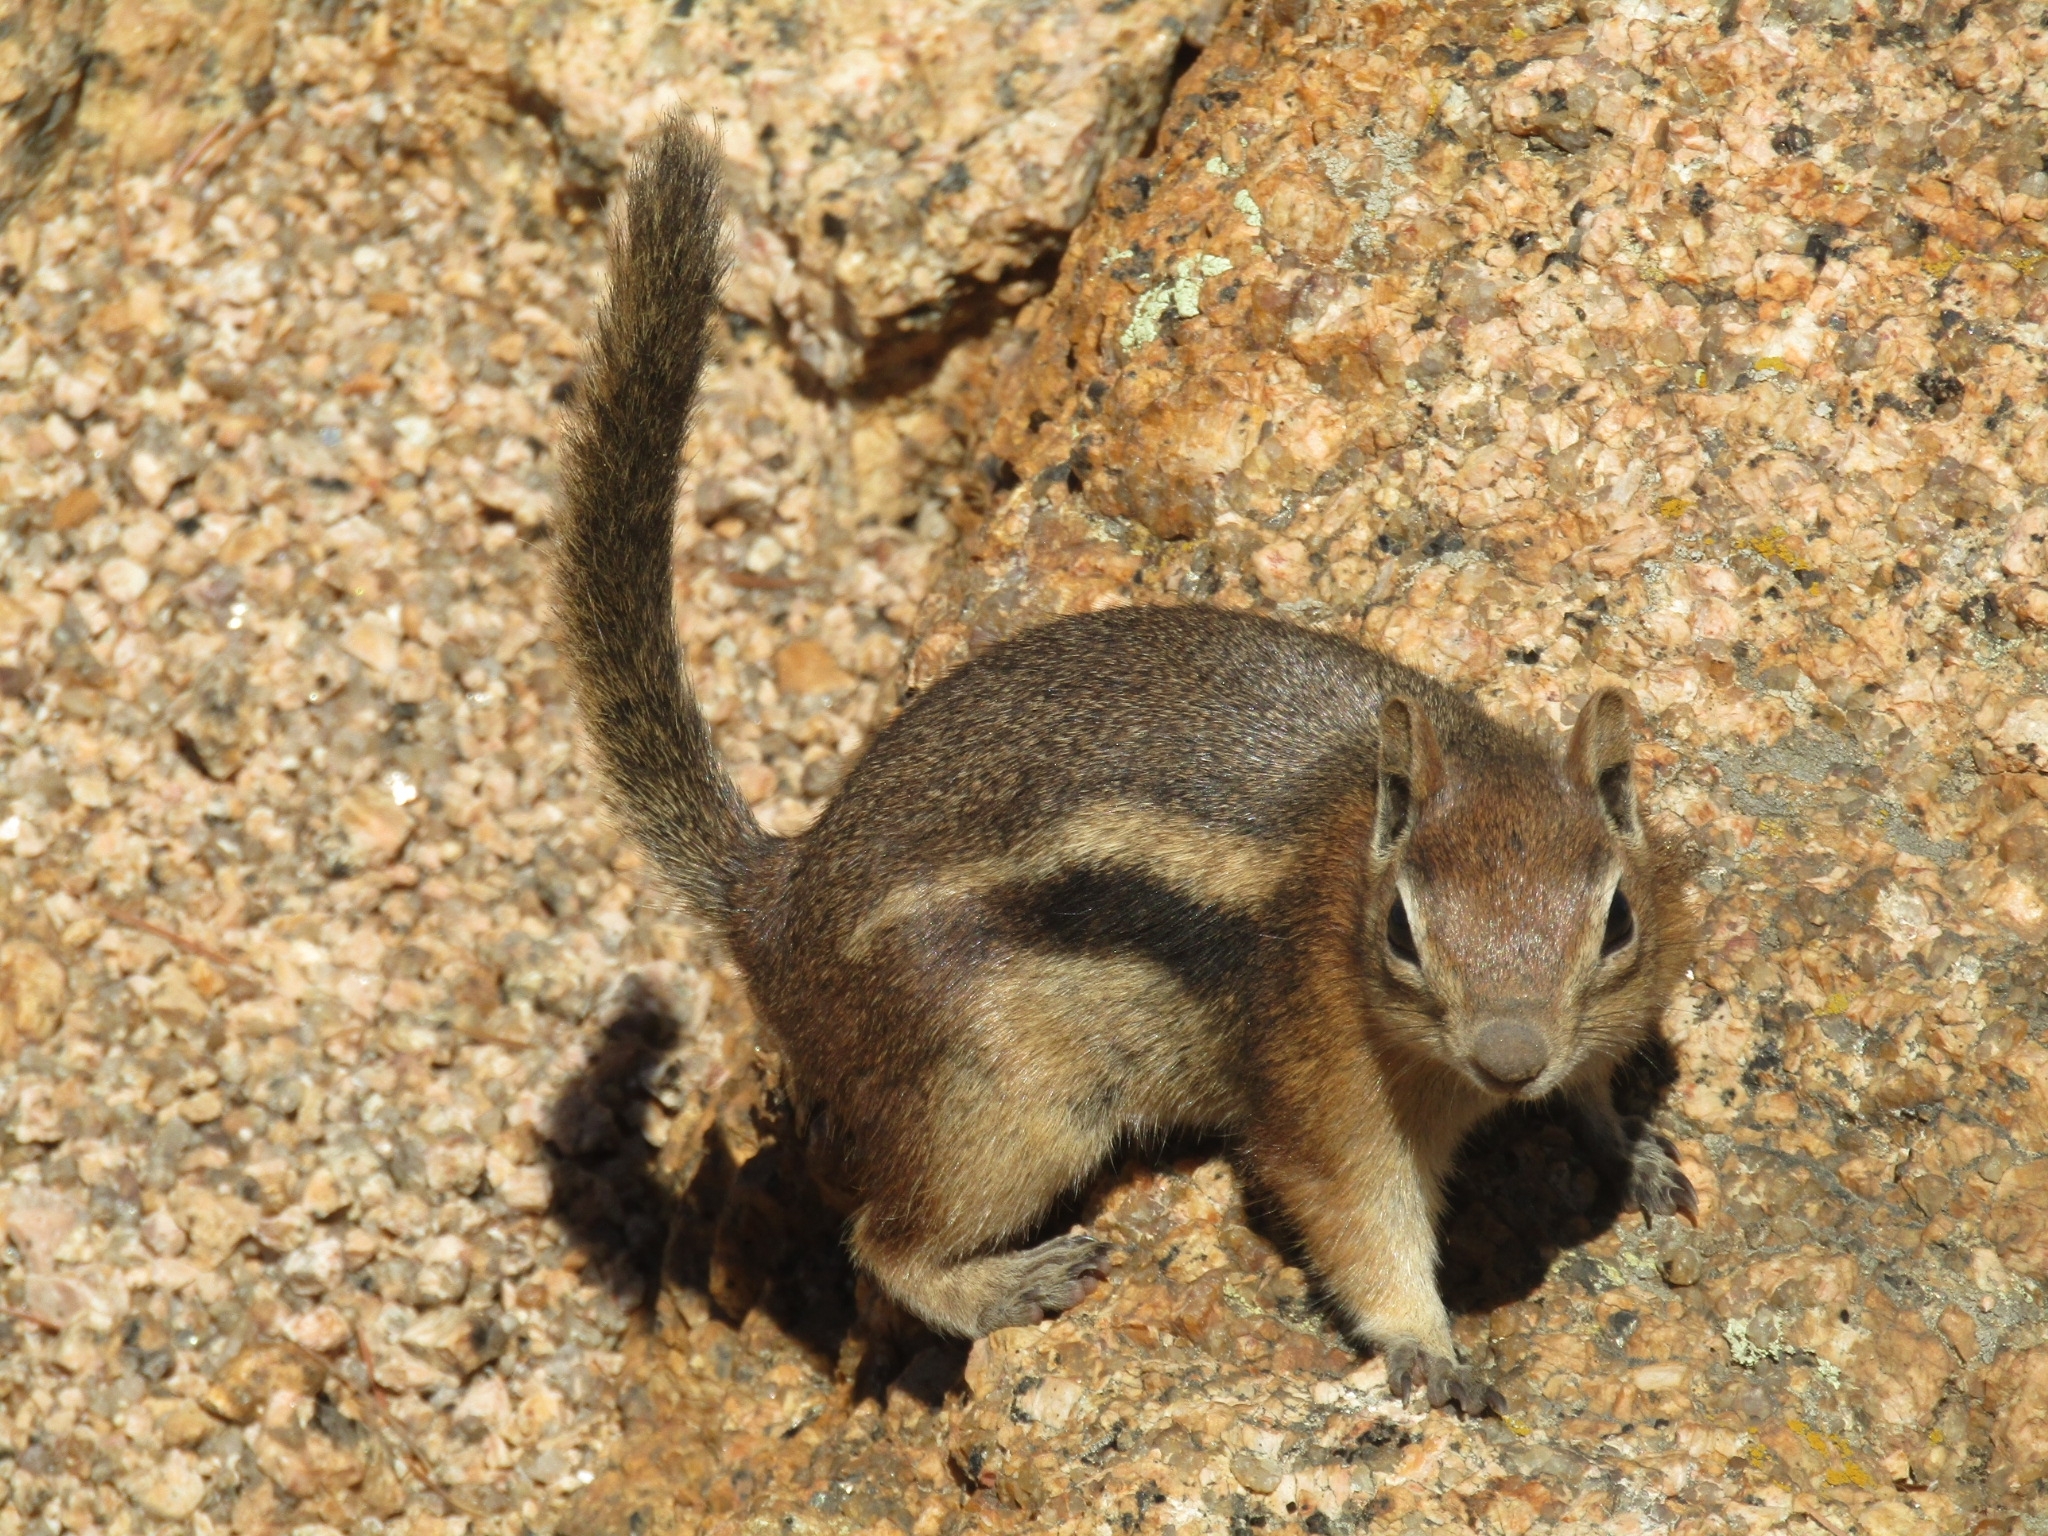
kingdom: Animalia
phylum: Chordata
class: Mammalia
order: Rodentia
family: Sciuridae
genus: Callospermophilus
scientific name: Callospermophilus lateralis
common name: Golden-mantled ground squirrel
